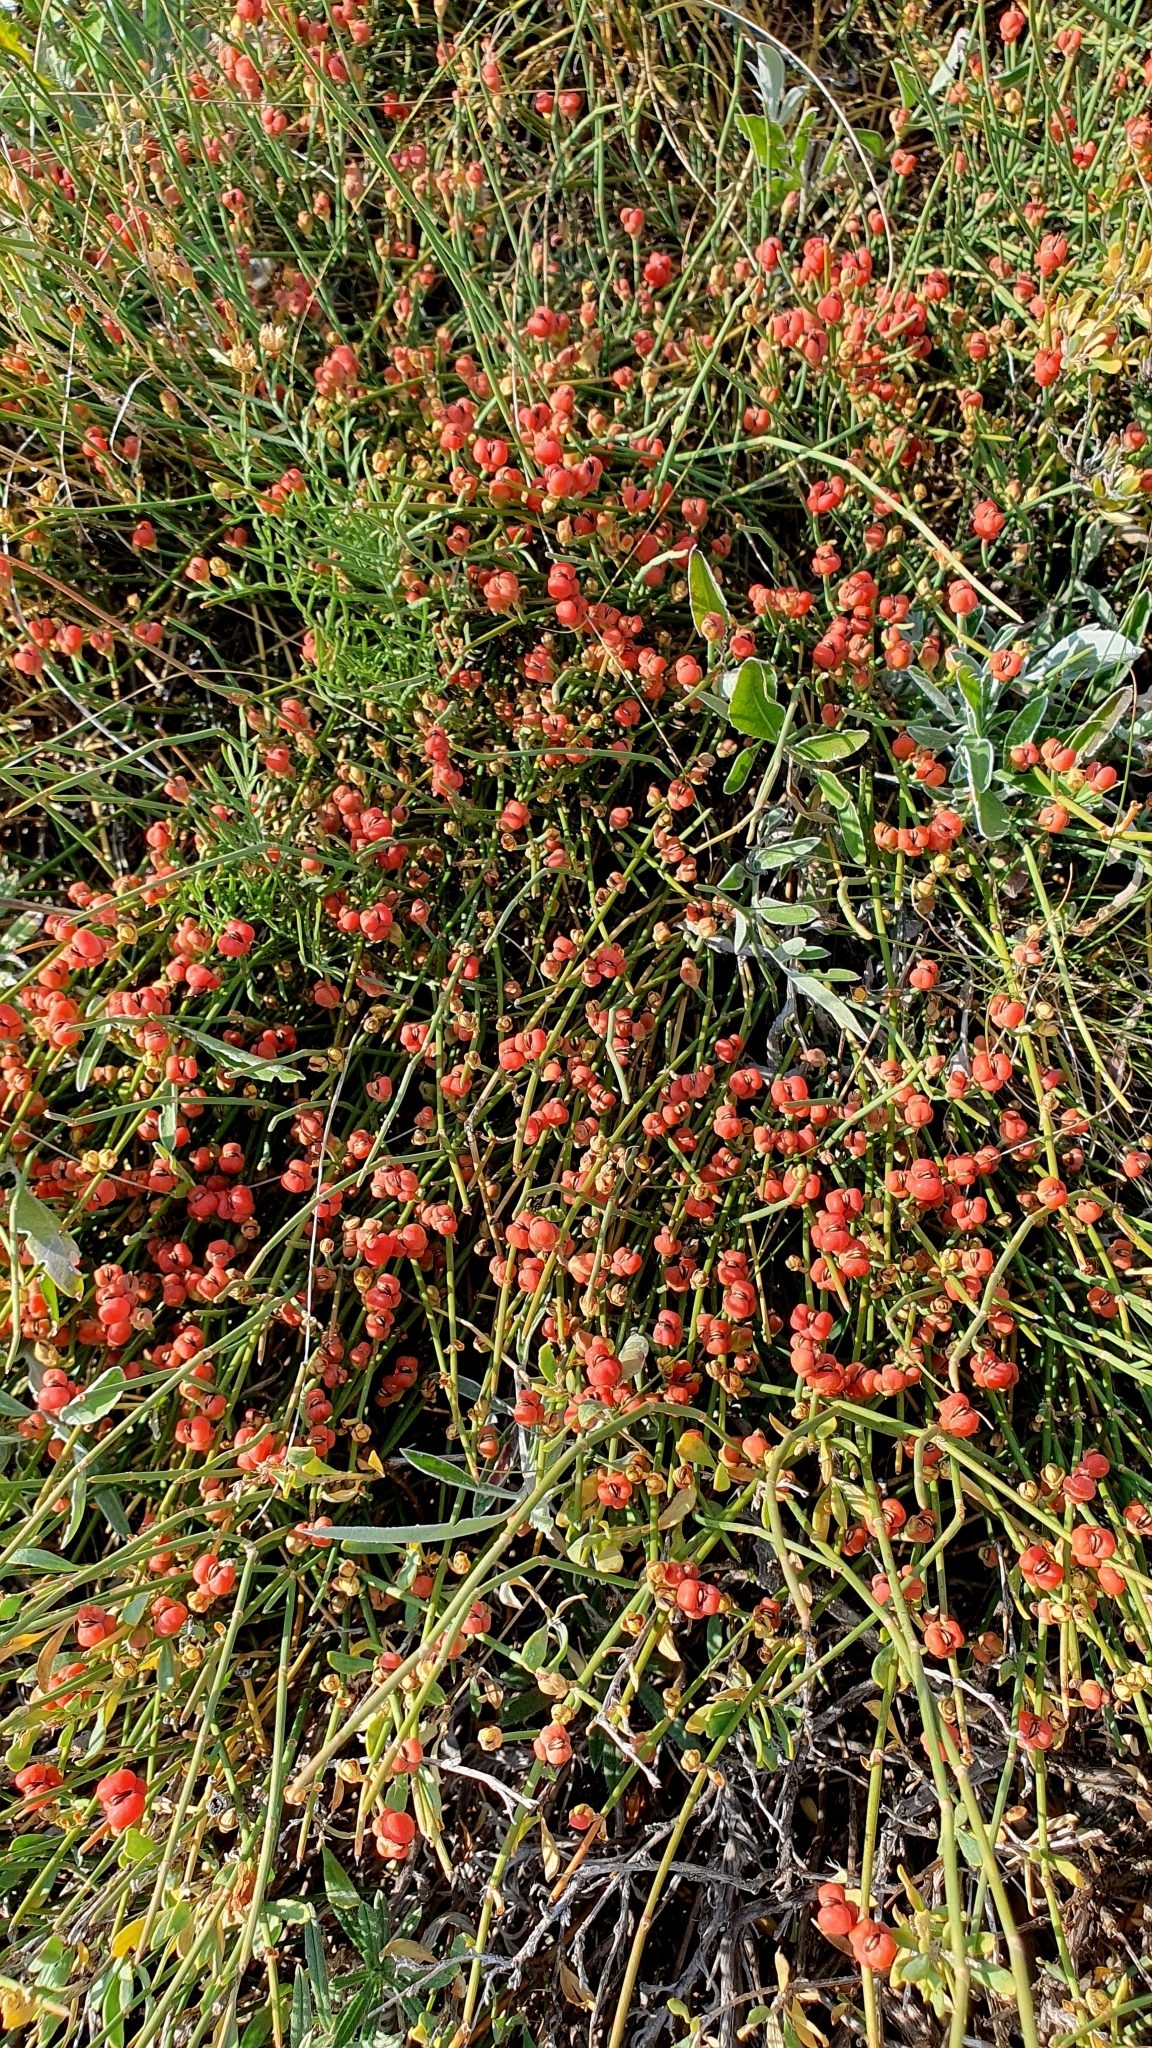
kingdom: Plantae
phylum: Tracheophyta
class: Gnetopsida
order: Ephedrales
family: Ephedraceae
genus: Ephedra
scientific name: Ephedra distachya
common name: Sea grape
